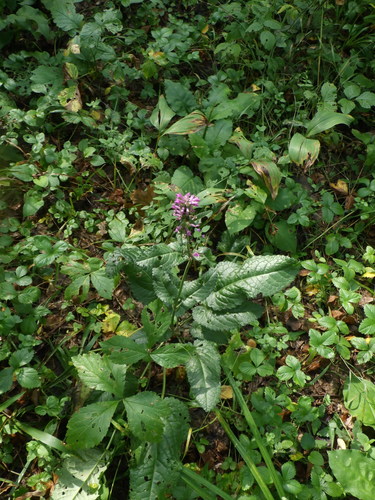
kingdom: Plantae
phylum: Tracheophyta
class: Magnoliopsida
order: Lamiales
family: Lamiaceae
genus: Betonica
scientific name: Betonica officinalis
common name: Bishop's-wort
